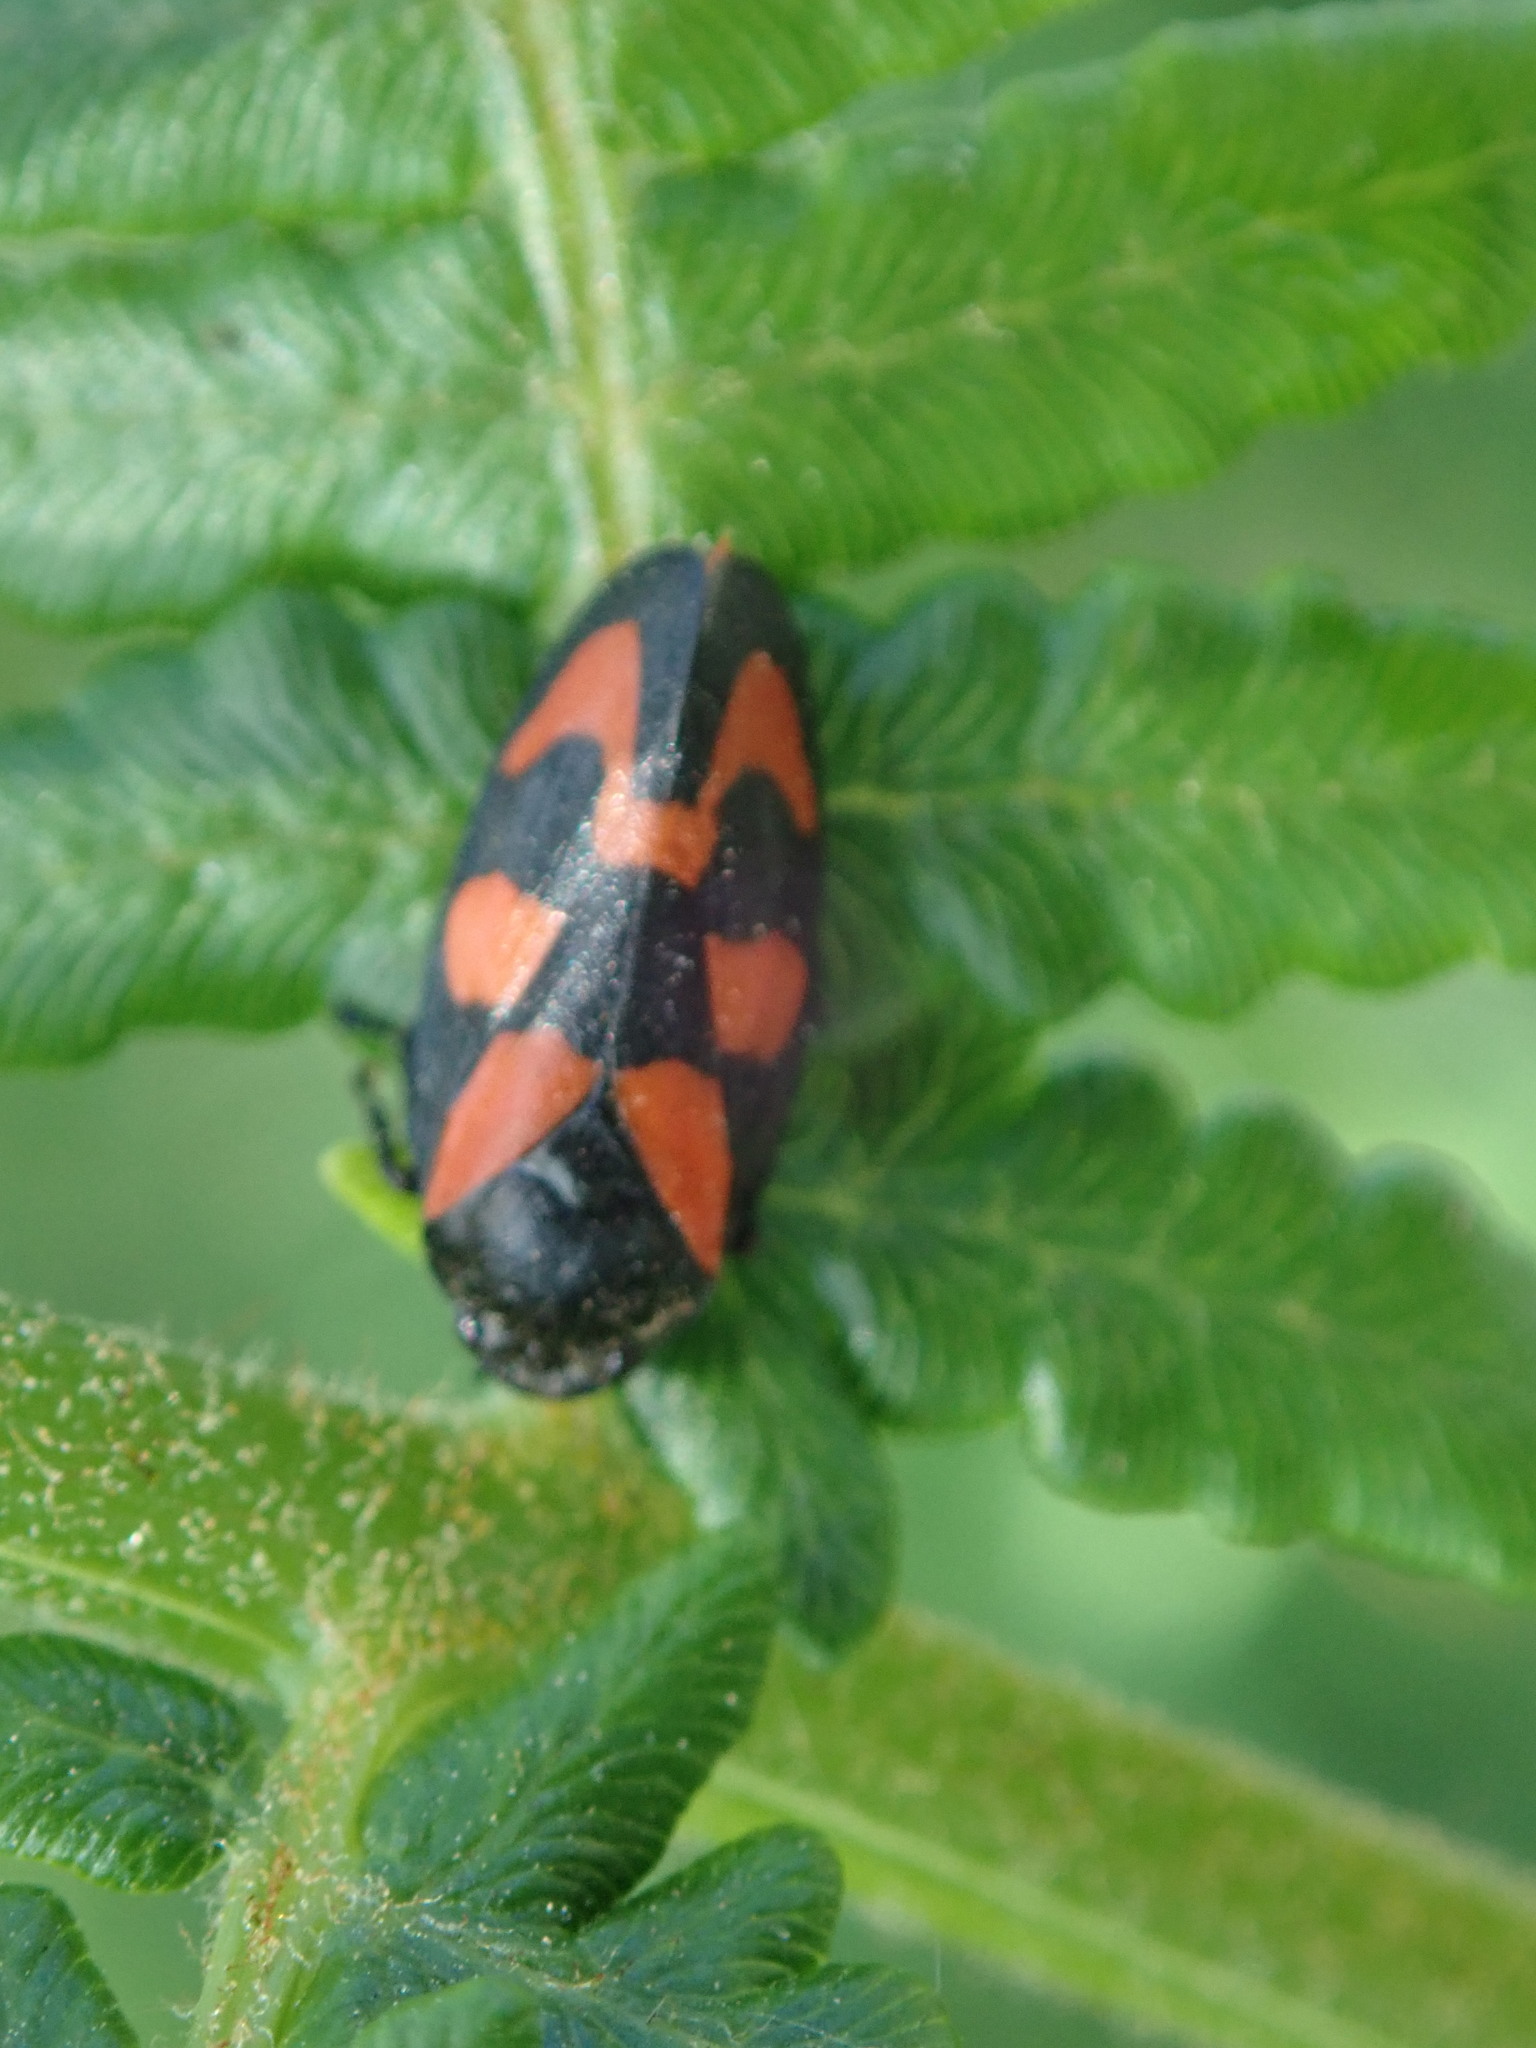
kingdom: Animalia
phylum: Arthropoda
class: Insecta
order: Hemiptera
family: Cercopidae
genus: Cercopis
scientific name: Cercopis vulnerata
